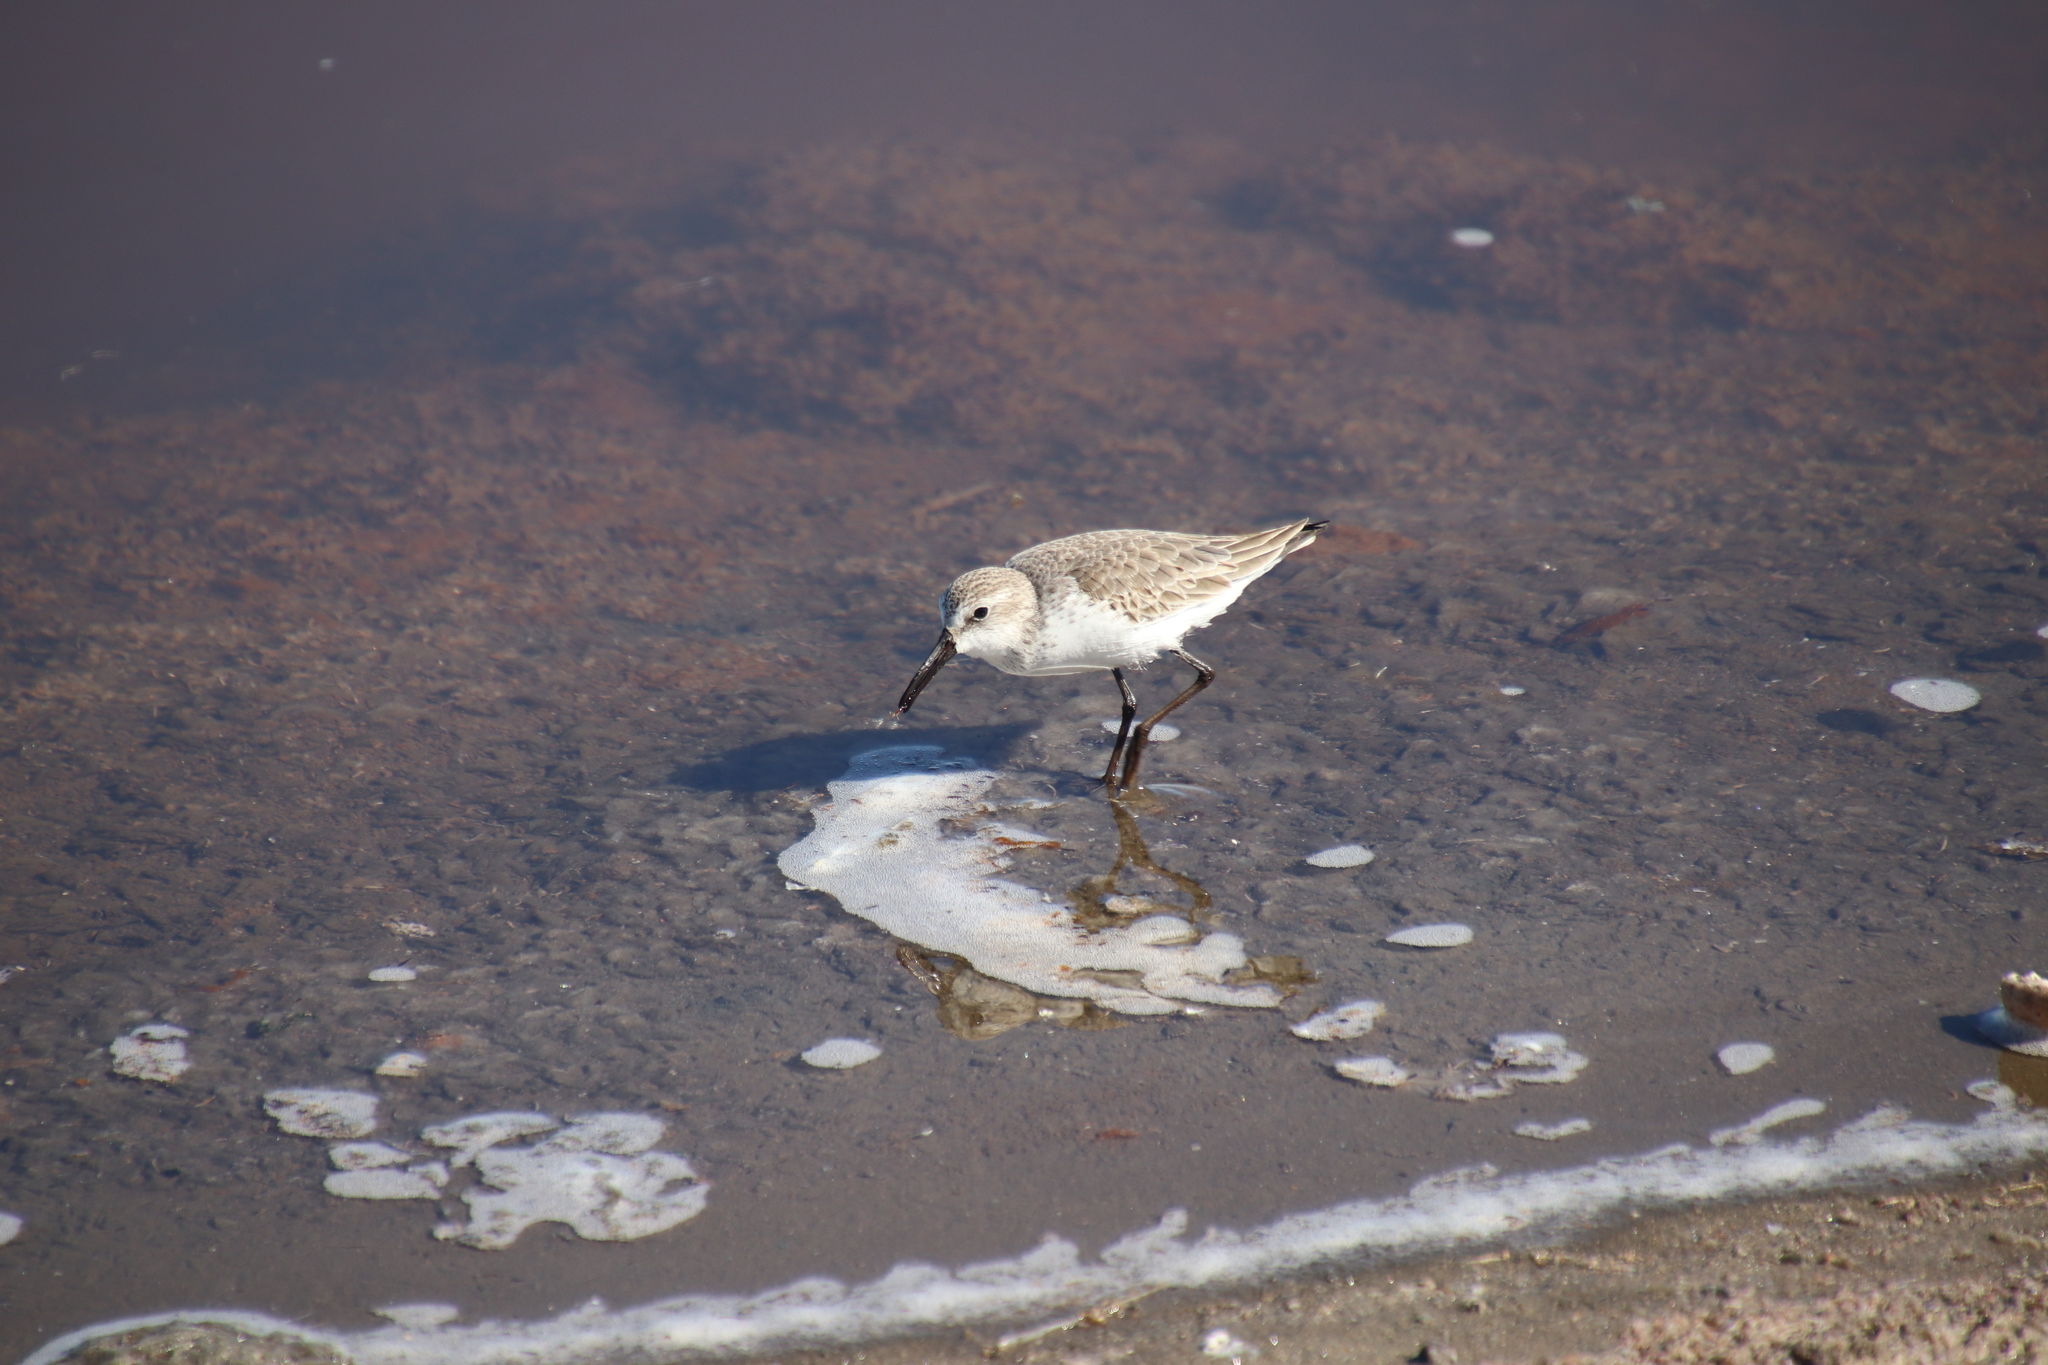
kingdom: Animalia
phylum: Chordata
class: Aves
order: Charadriiformes
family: Scolopacidae
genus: Calidris
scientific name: Calidris mauri
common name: Western sandpiper
